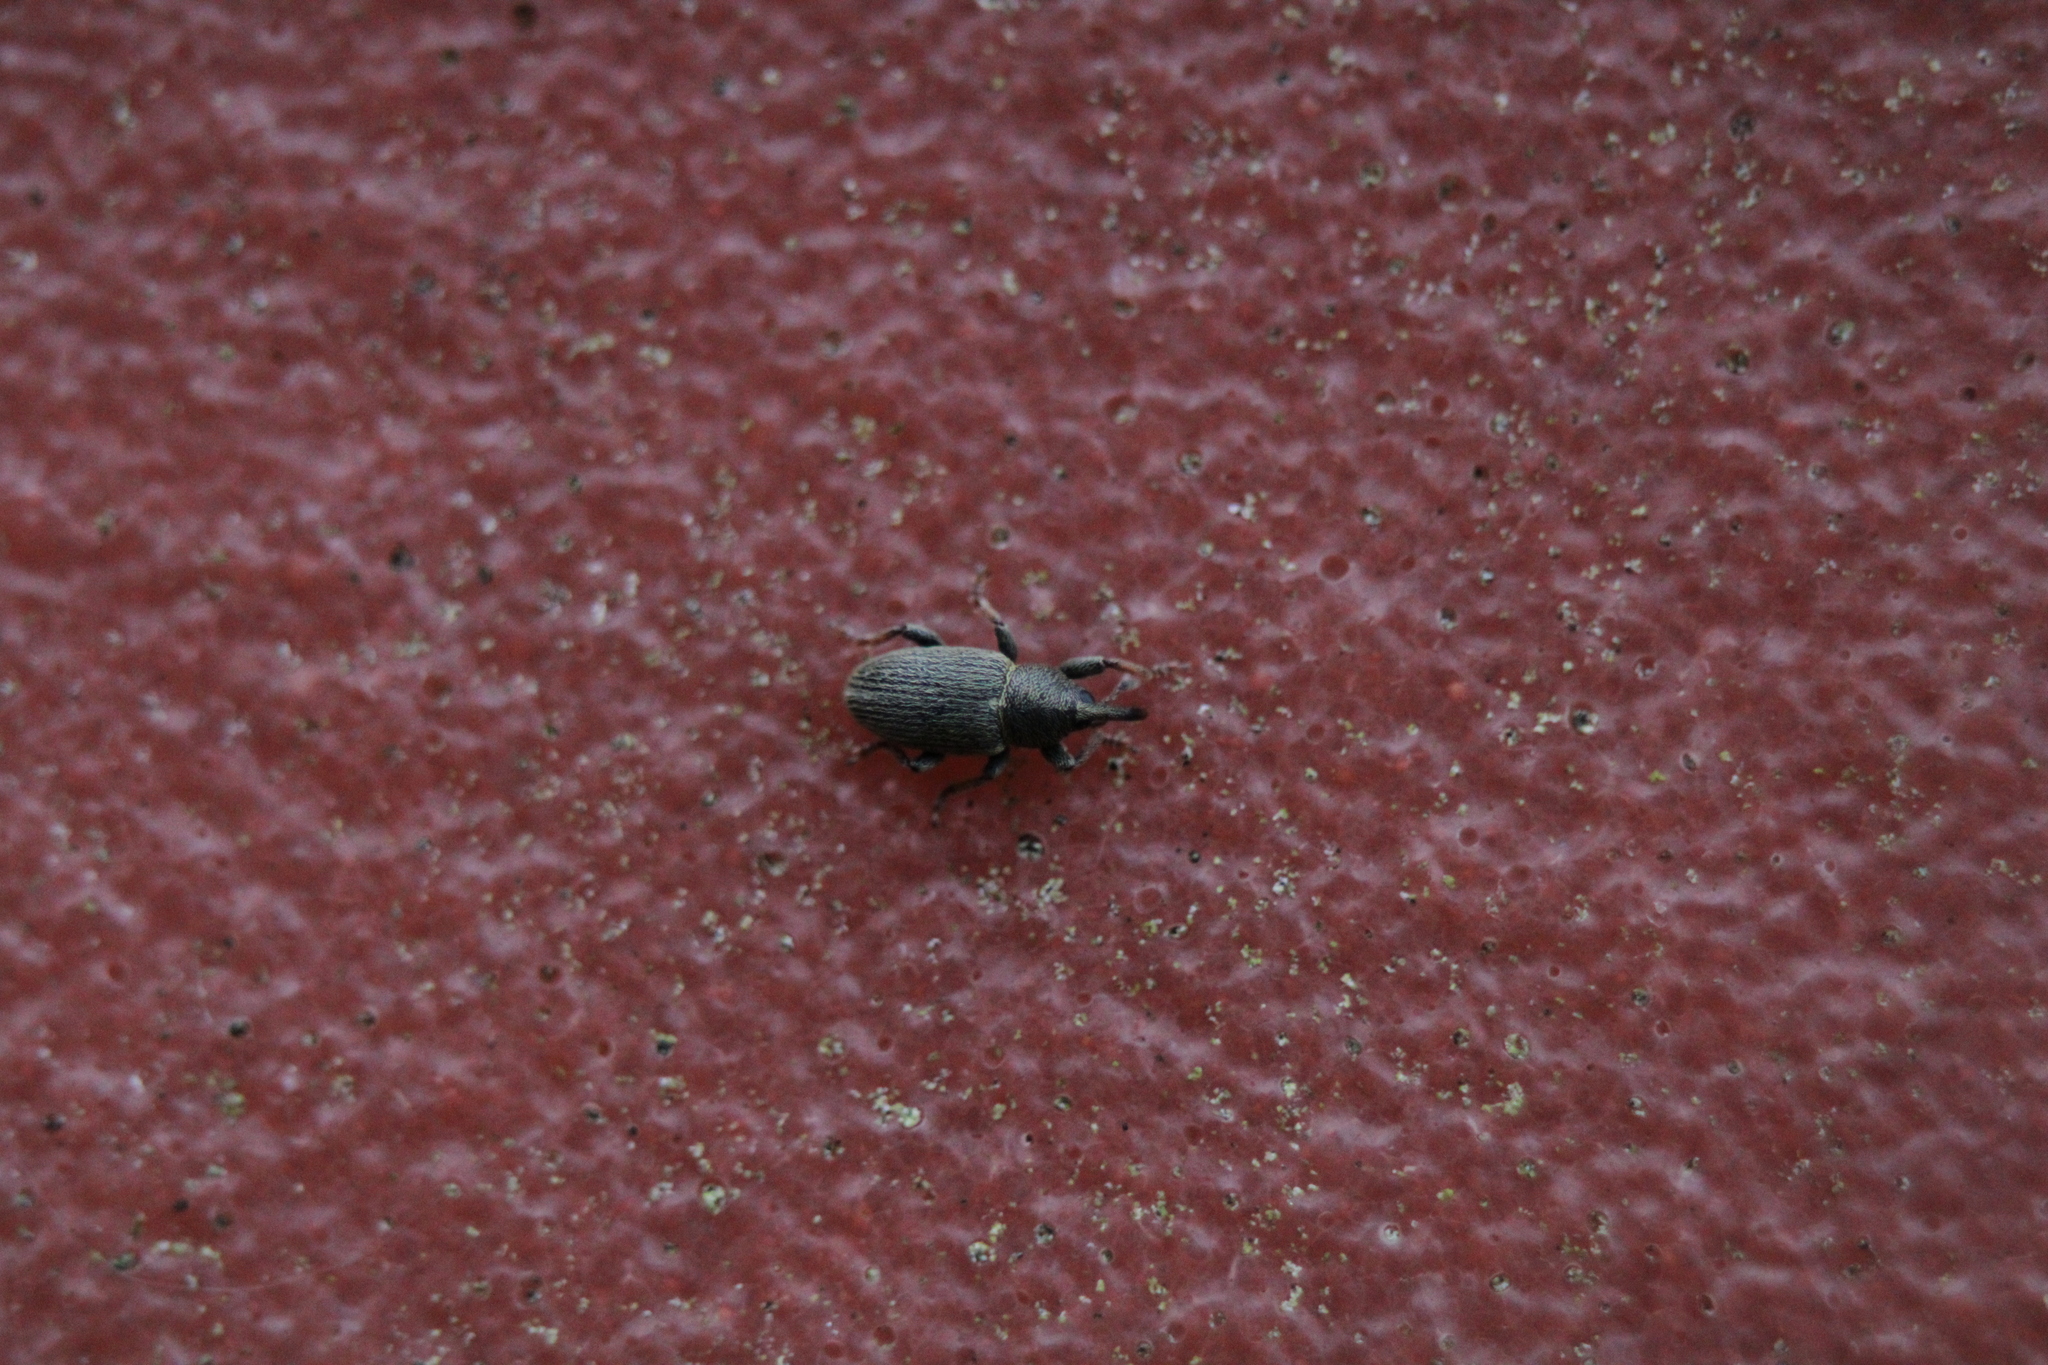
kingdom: Animalia
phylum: Arthropoda
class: Insecta
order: Coleoptera
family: Curculionidae
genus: Tychius
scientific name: Tychius picirostris
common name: Clover seed weevil
